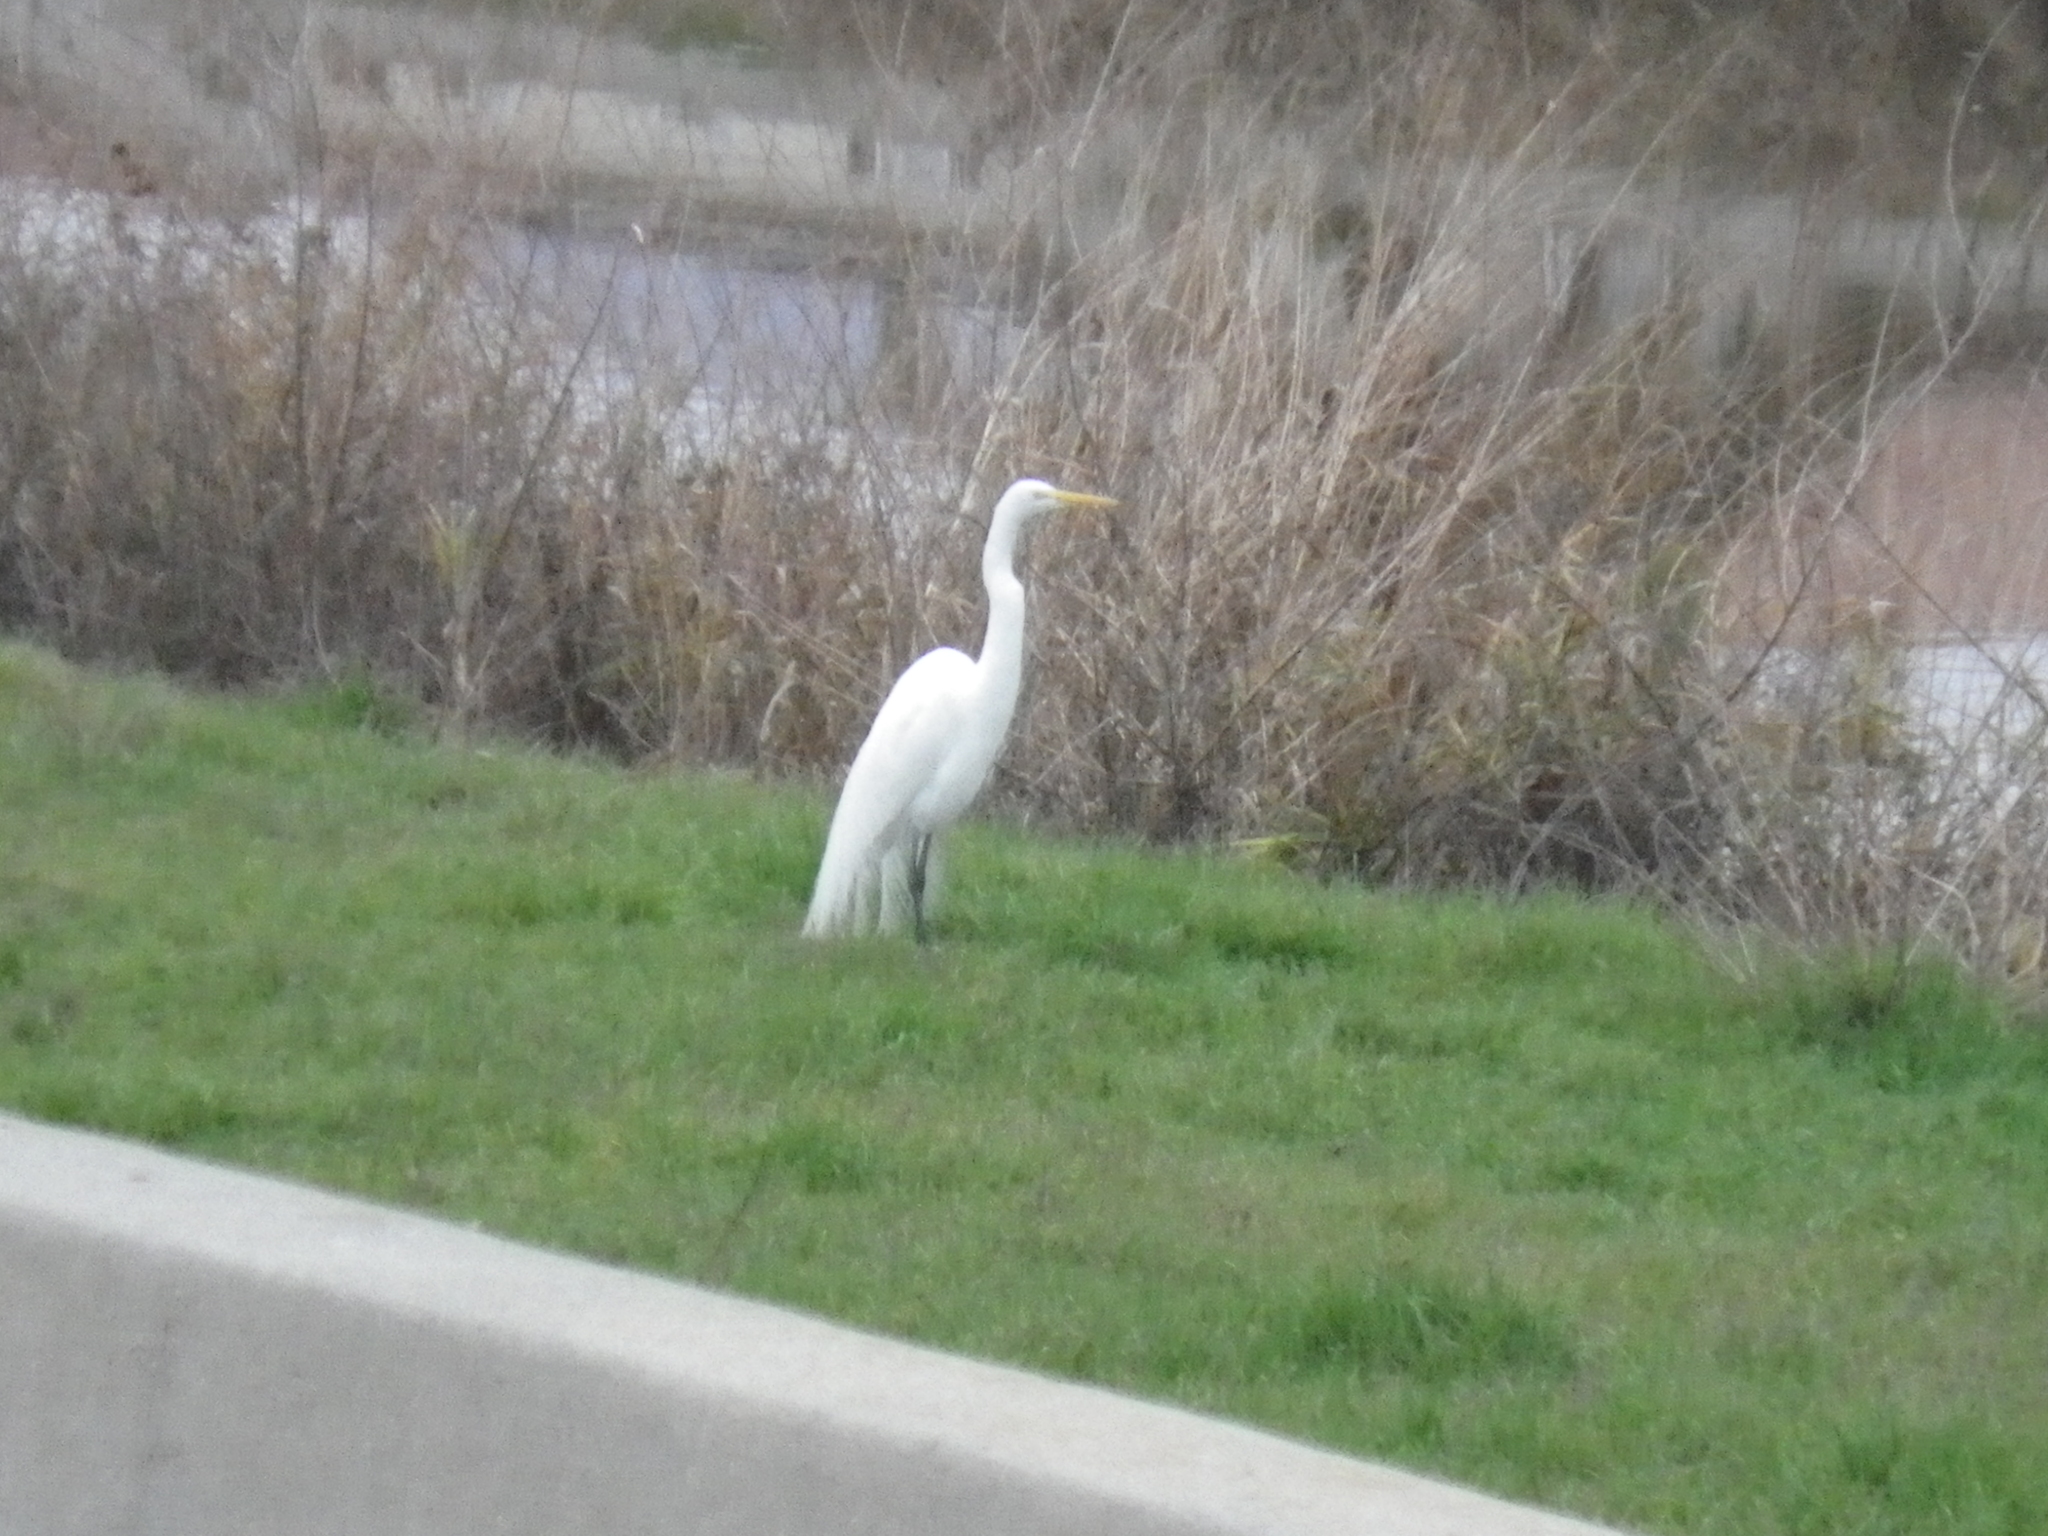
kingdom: Animalia
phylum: Chordata
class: Aves
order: Pelecaniformes
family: Ardeidae
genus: Ardea
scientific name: Ardea alba
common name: Great egret
